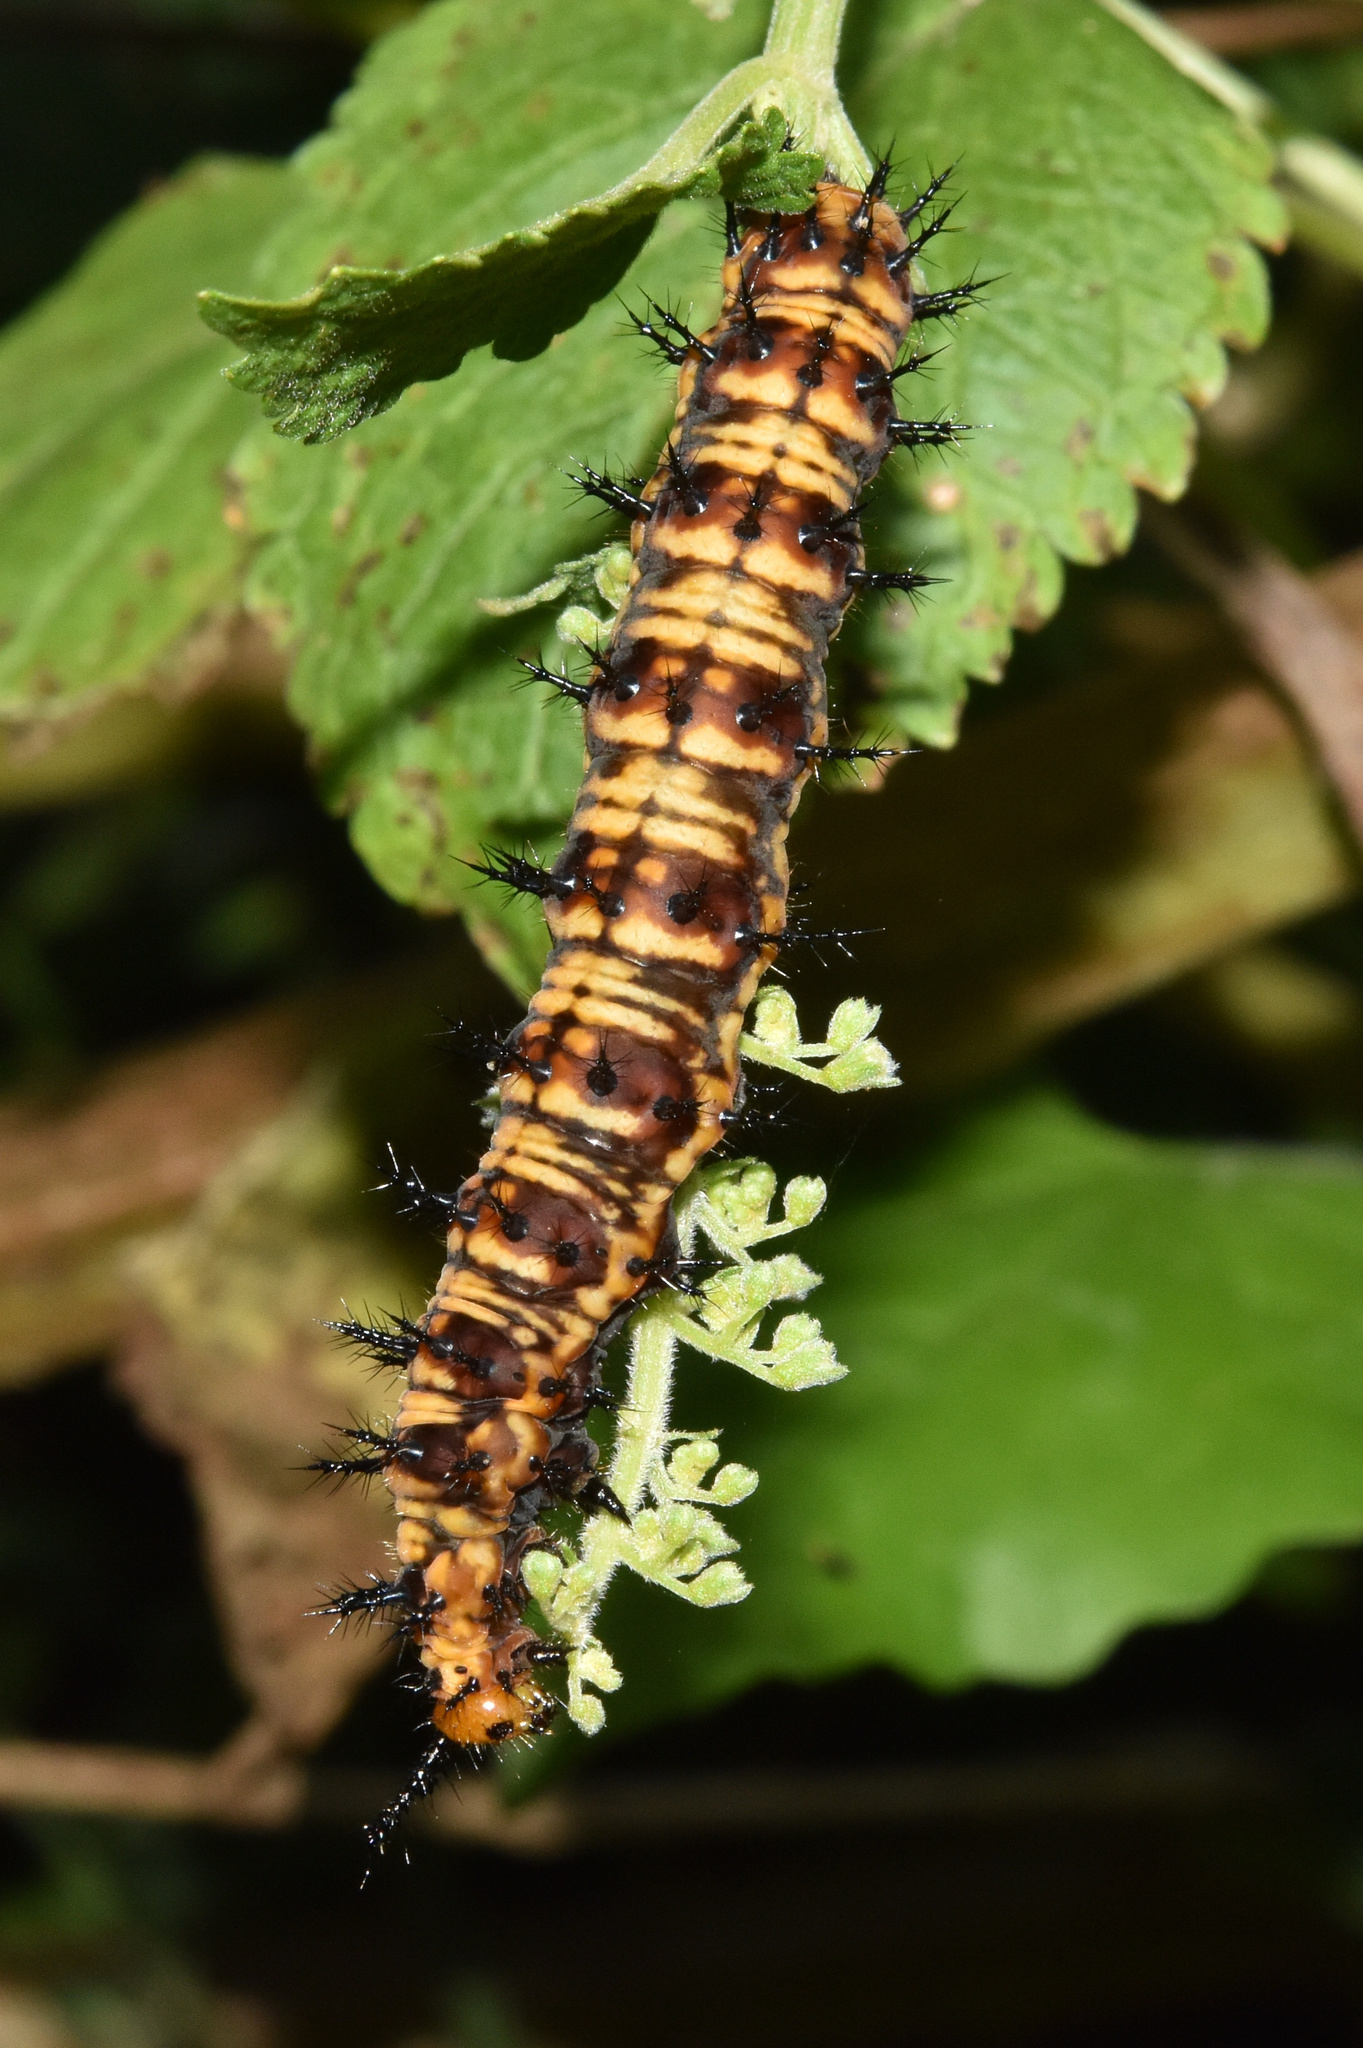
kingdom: Animalia
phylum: Arthropoda
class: Insecta
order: Lepidoptera
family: Nymphalidae
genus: Precis
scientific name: Precis octavia
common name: Gaudy commodore
